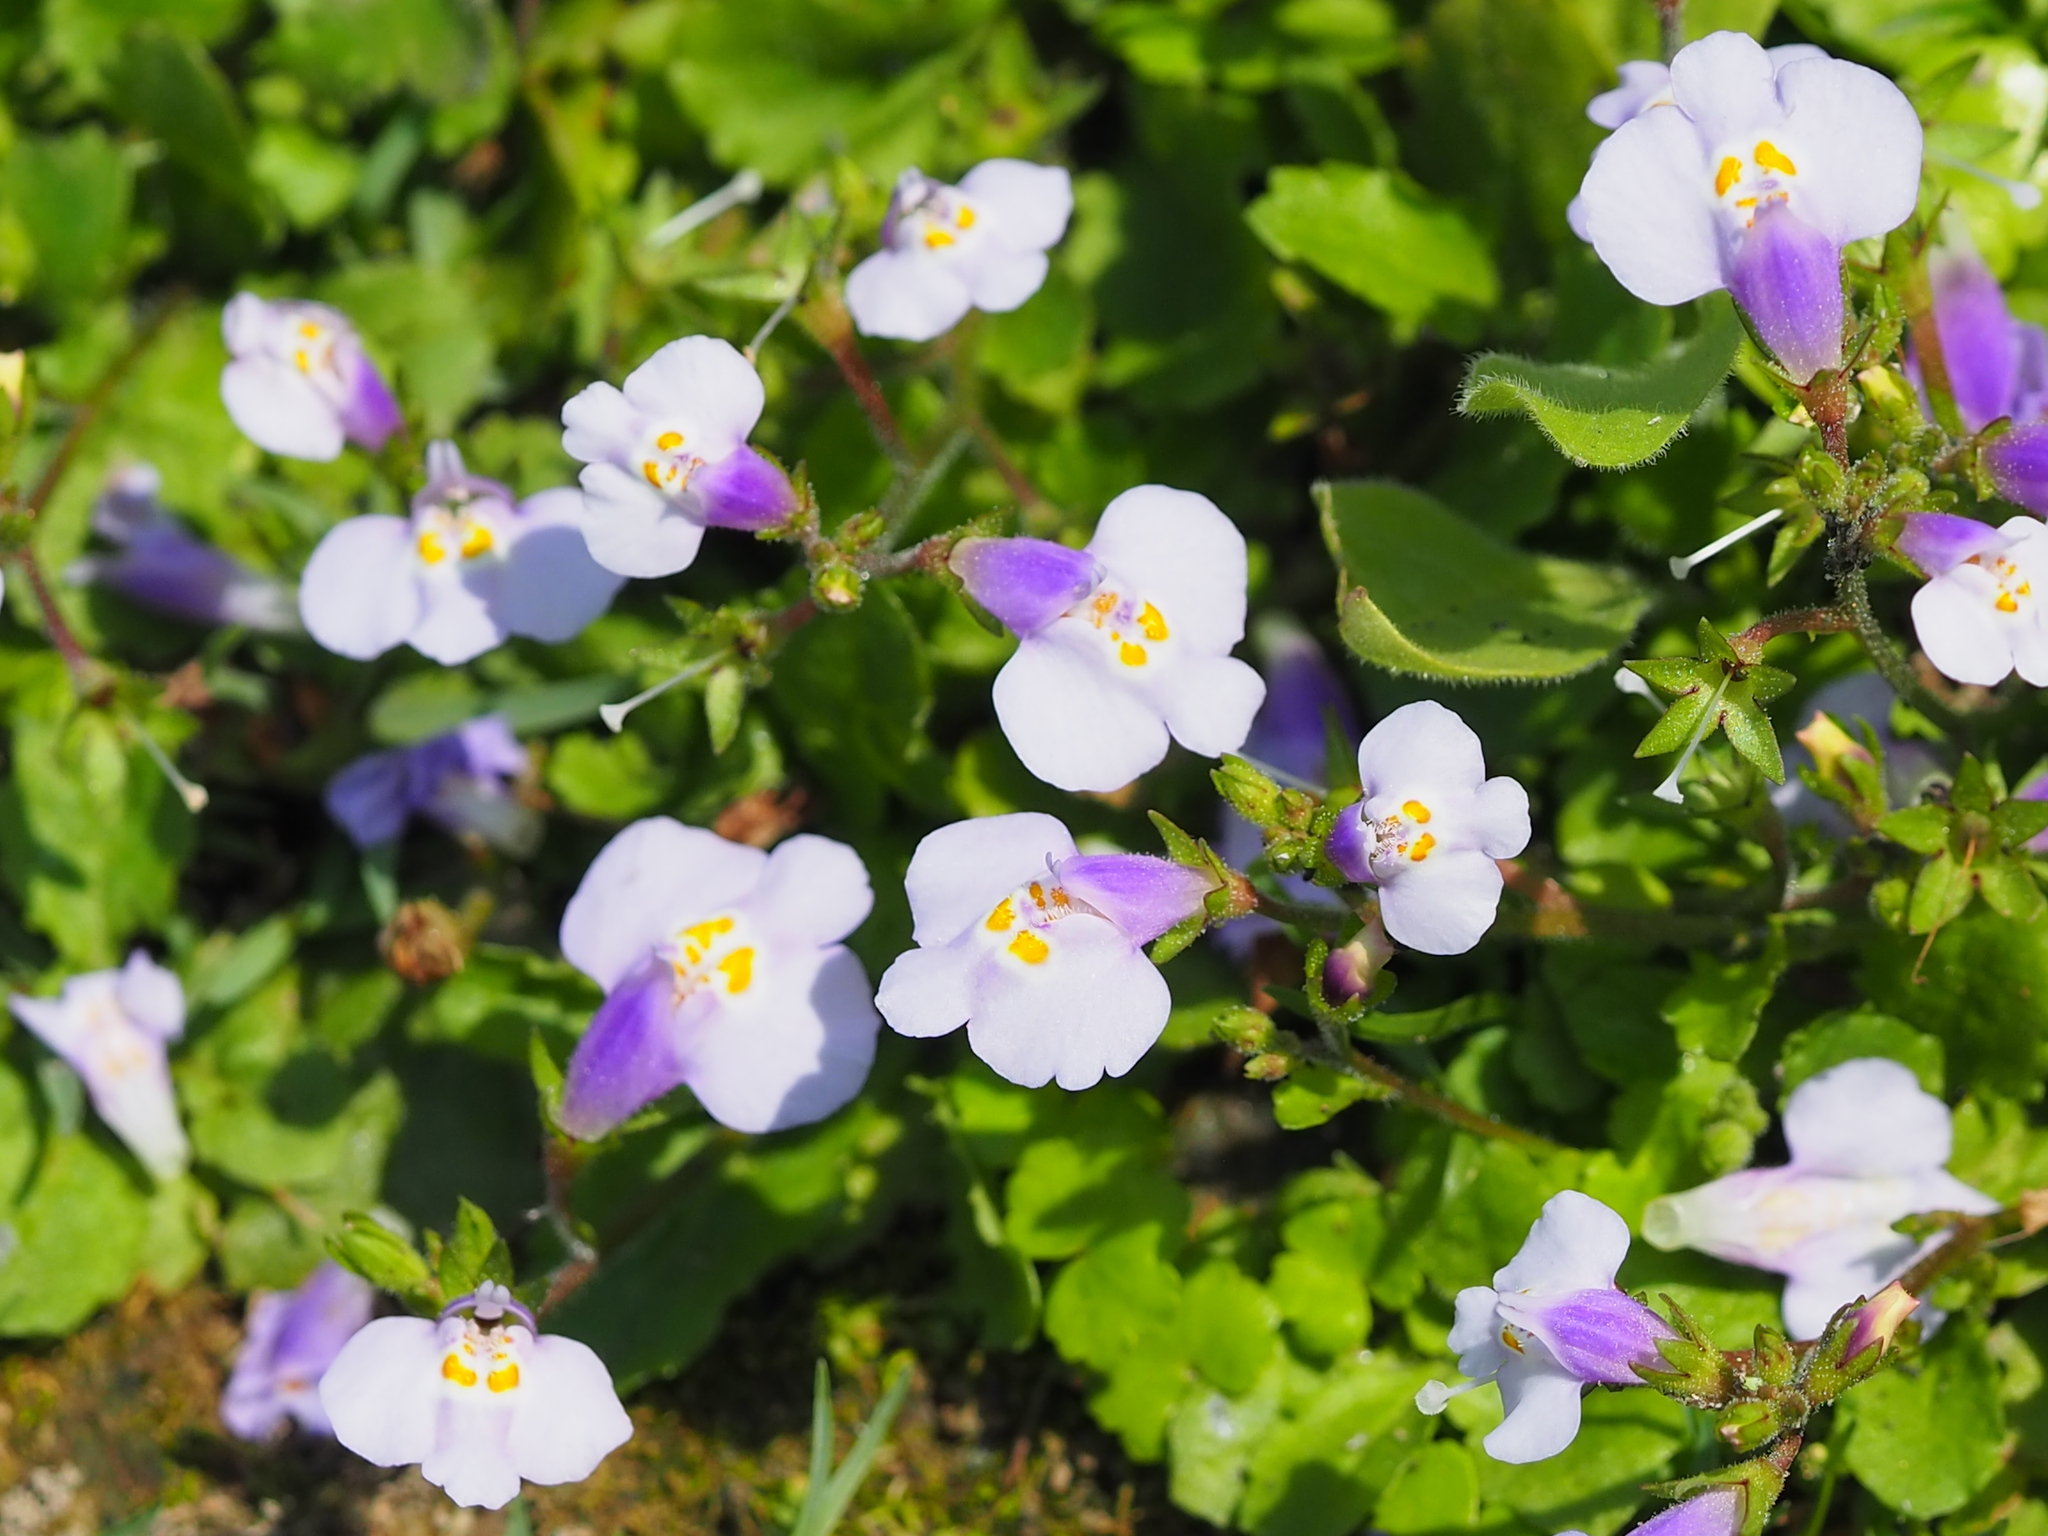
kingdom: Plantae
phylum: Tracheophyta
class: Magnoliopsida
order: Lamiales
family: Mazaceae
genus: Mazus
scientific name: Mazus fauriei
